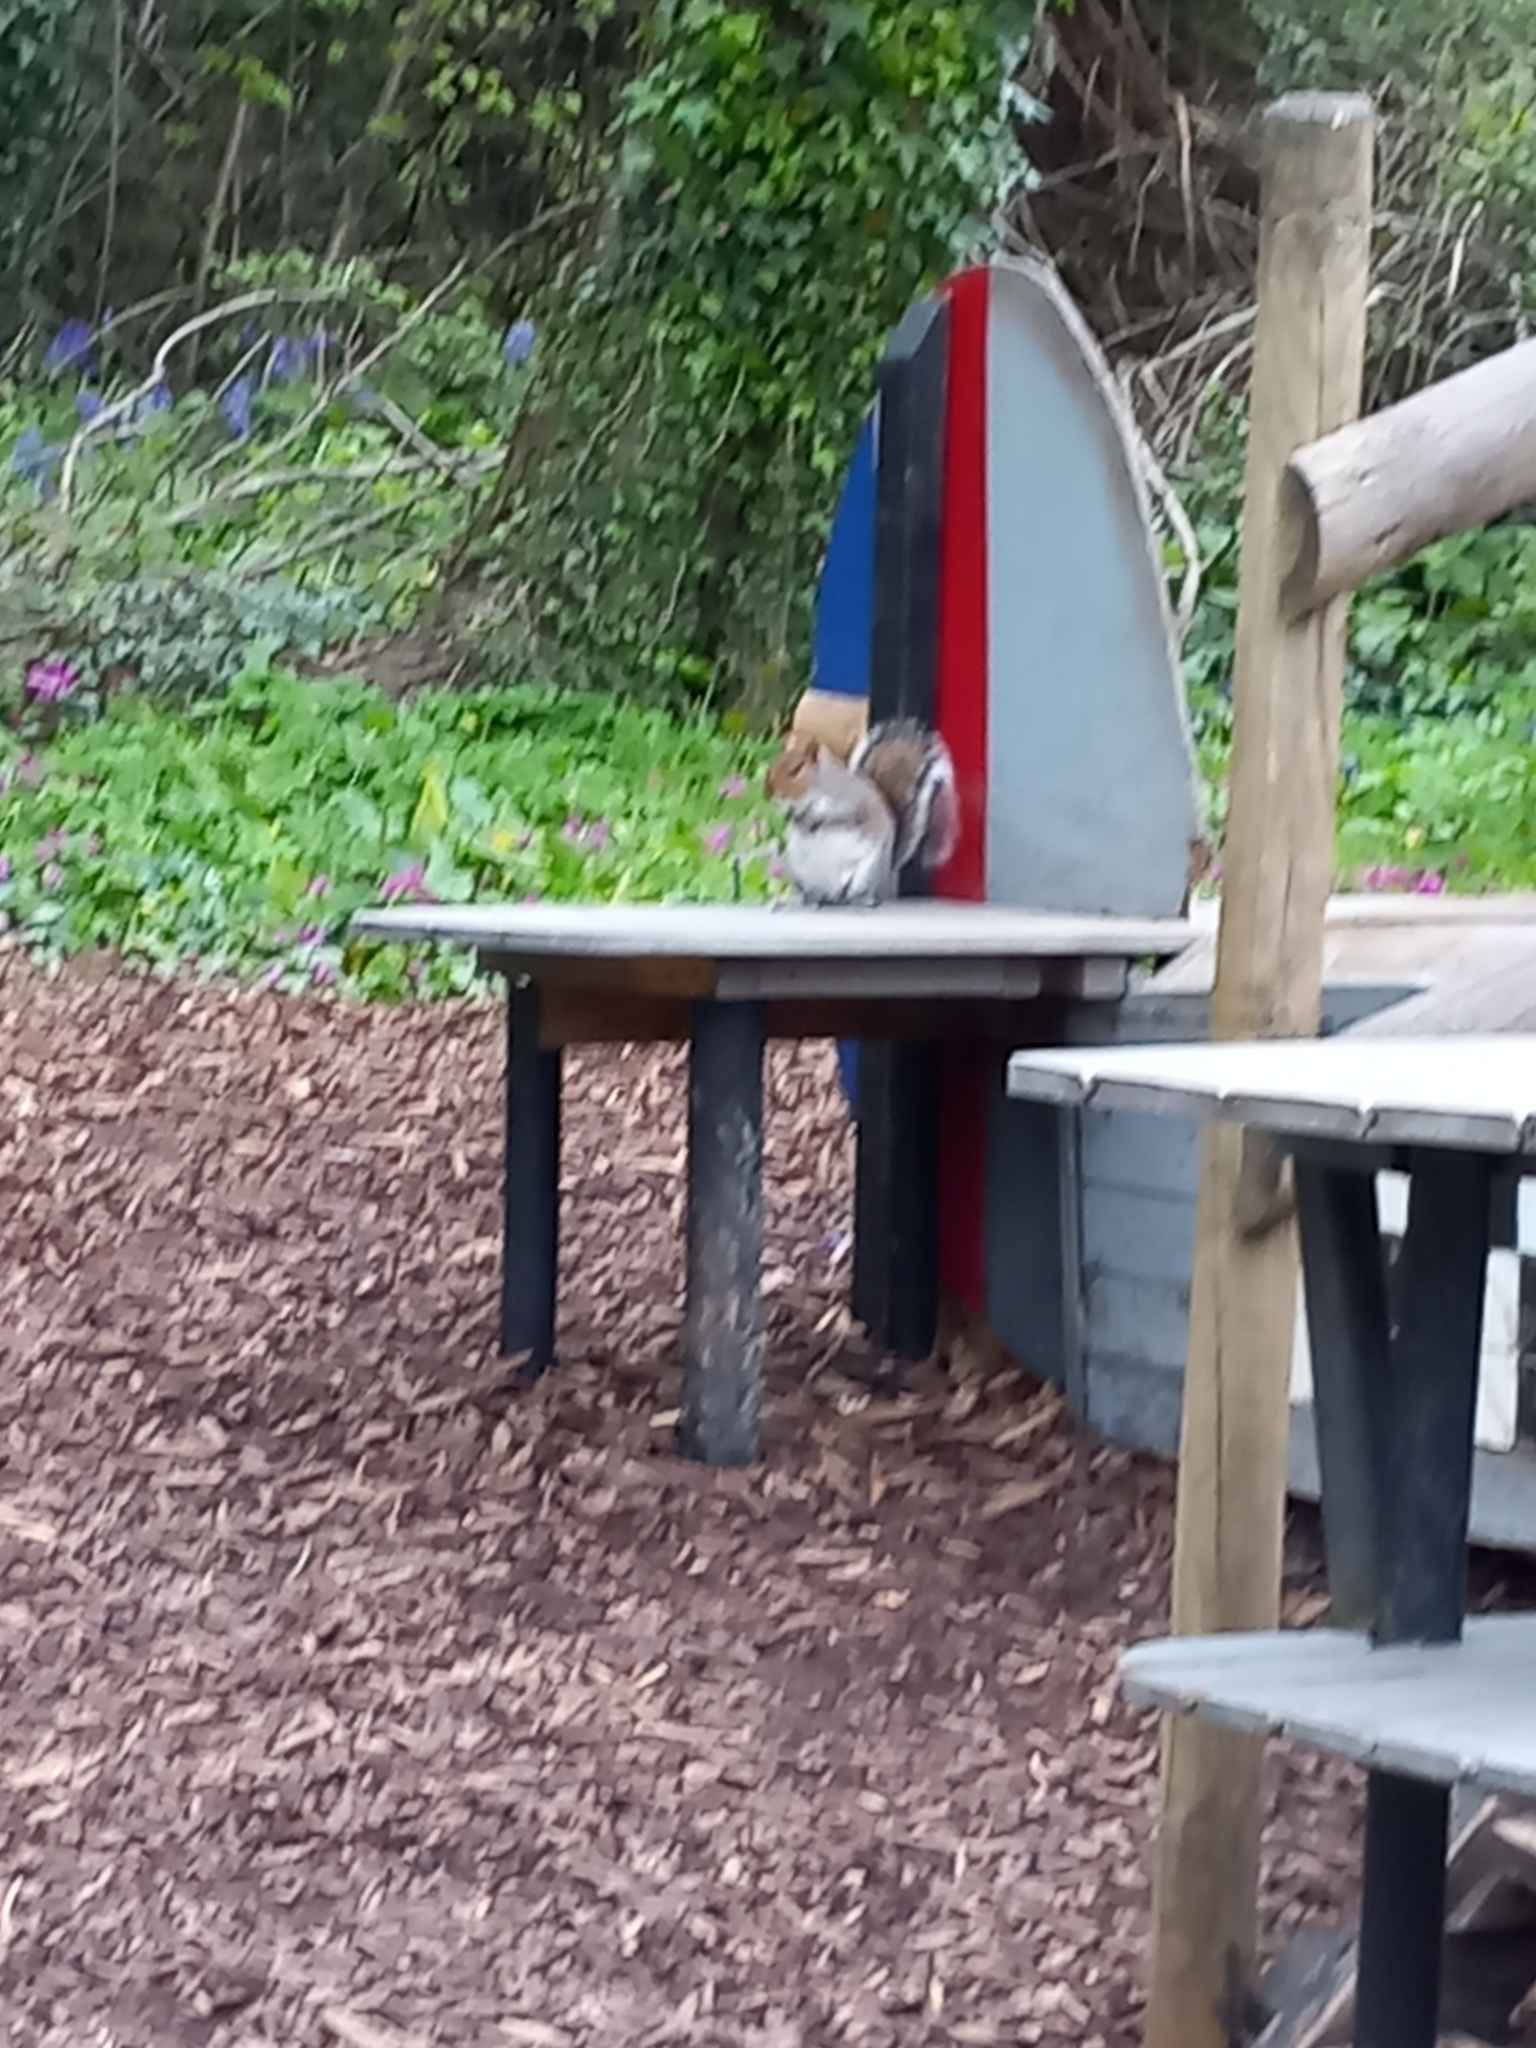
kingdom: Animalia
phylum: Chordata
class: Mammalia
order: Rodentia
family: Sciuridae
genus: Sciurus
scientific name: Sciurus carolinensis
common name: Eastern gray squirrel
